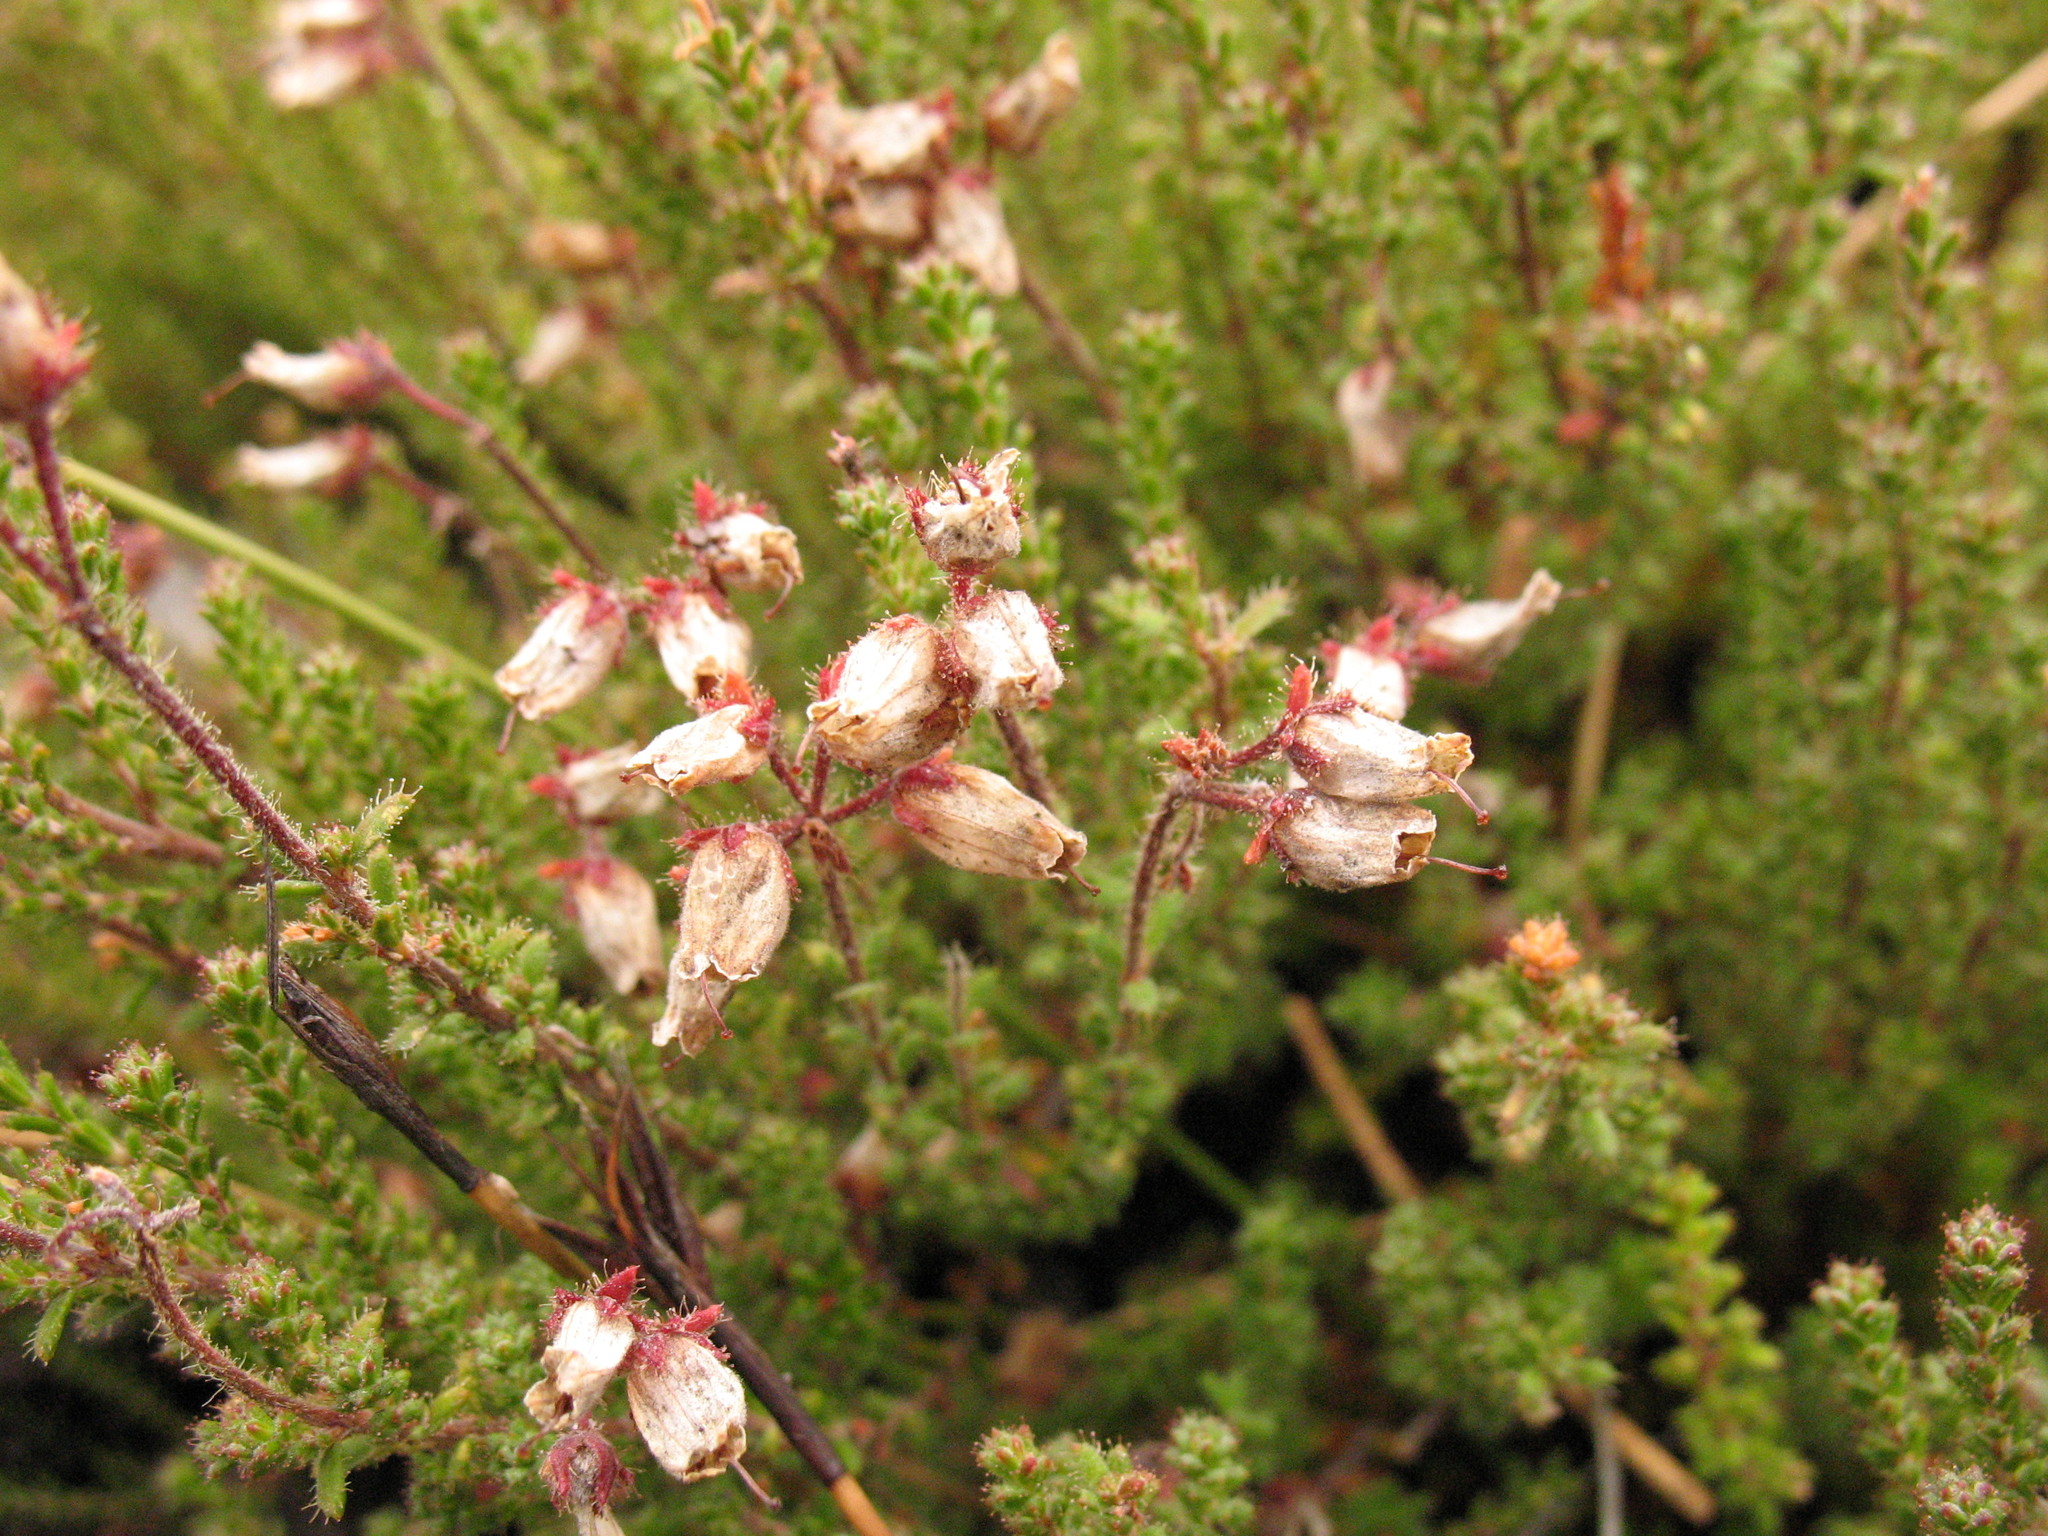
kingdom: Plantae
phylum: Tracheophyta
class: Magnoliopsida
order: Ericales
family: Ericaceae
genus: Erica
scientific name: Erica coacervata
